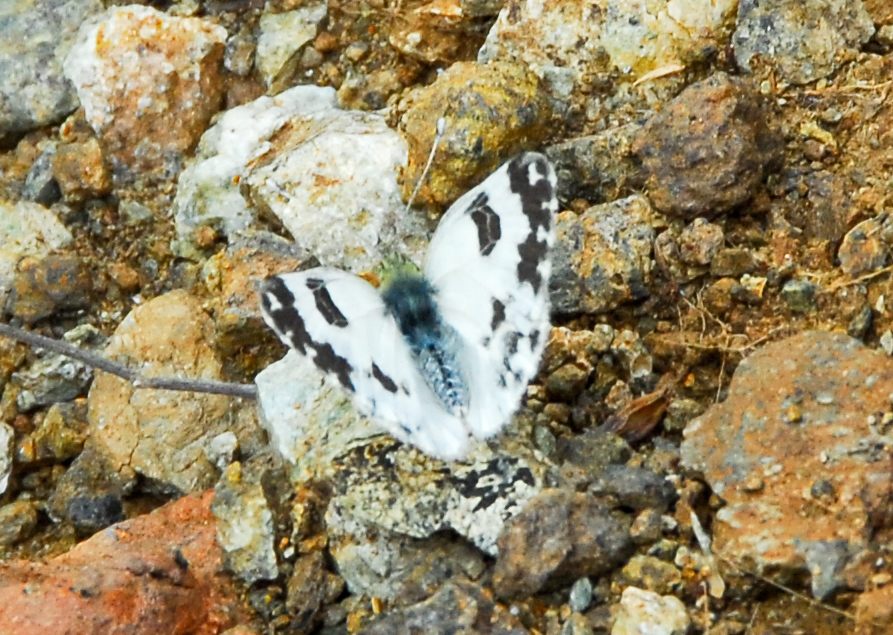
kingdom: Animalia
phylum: Arthropoda
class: Insecta
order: Lepidoptera
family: Pieridae
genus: Pontia
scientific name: Pontia daplidice
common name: Bath white
